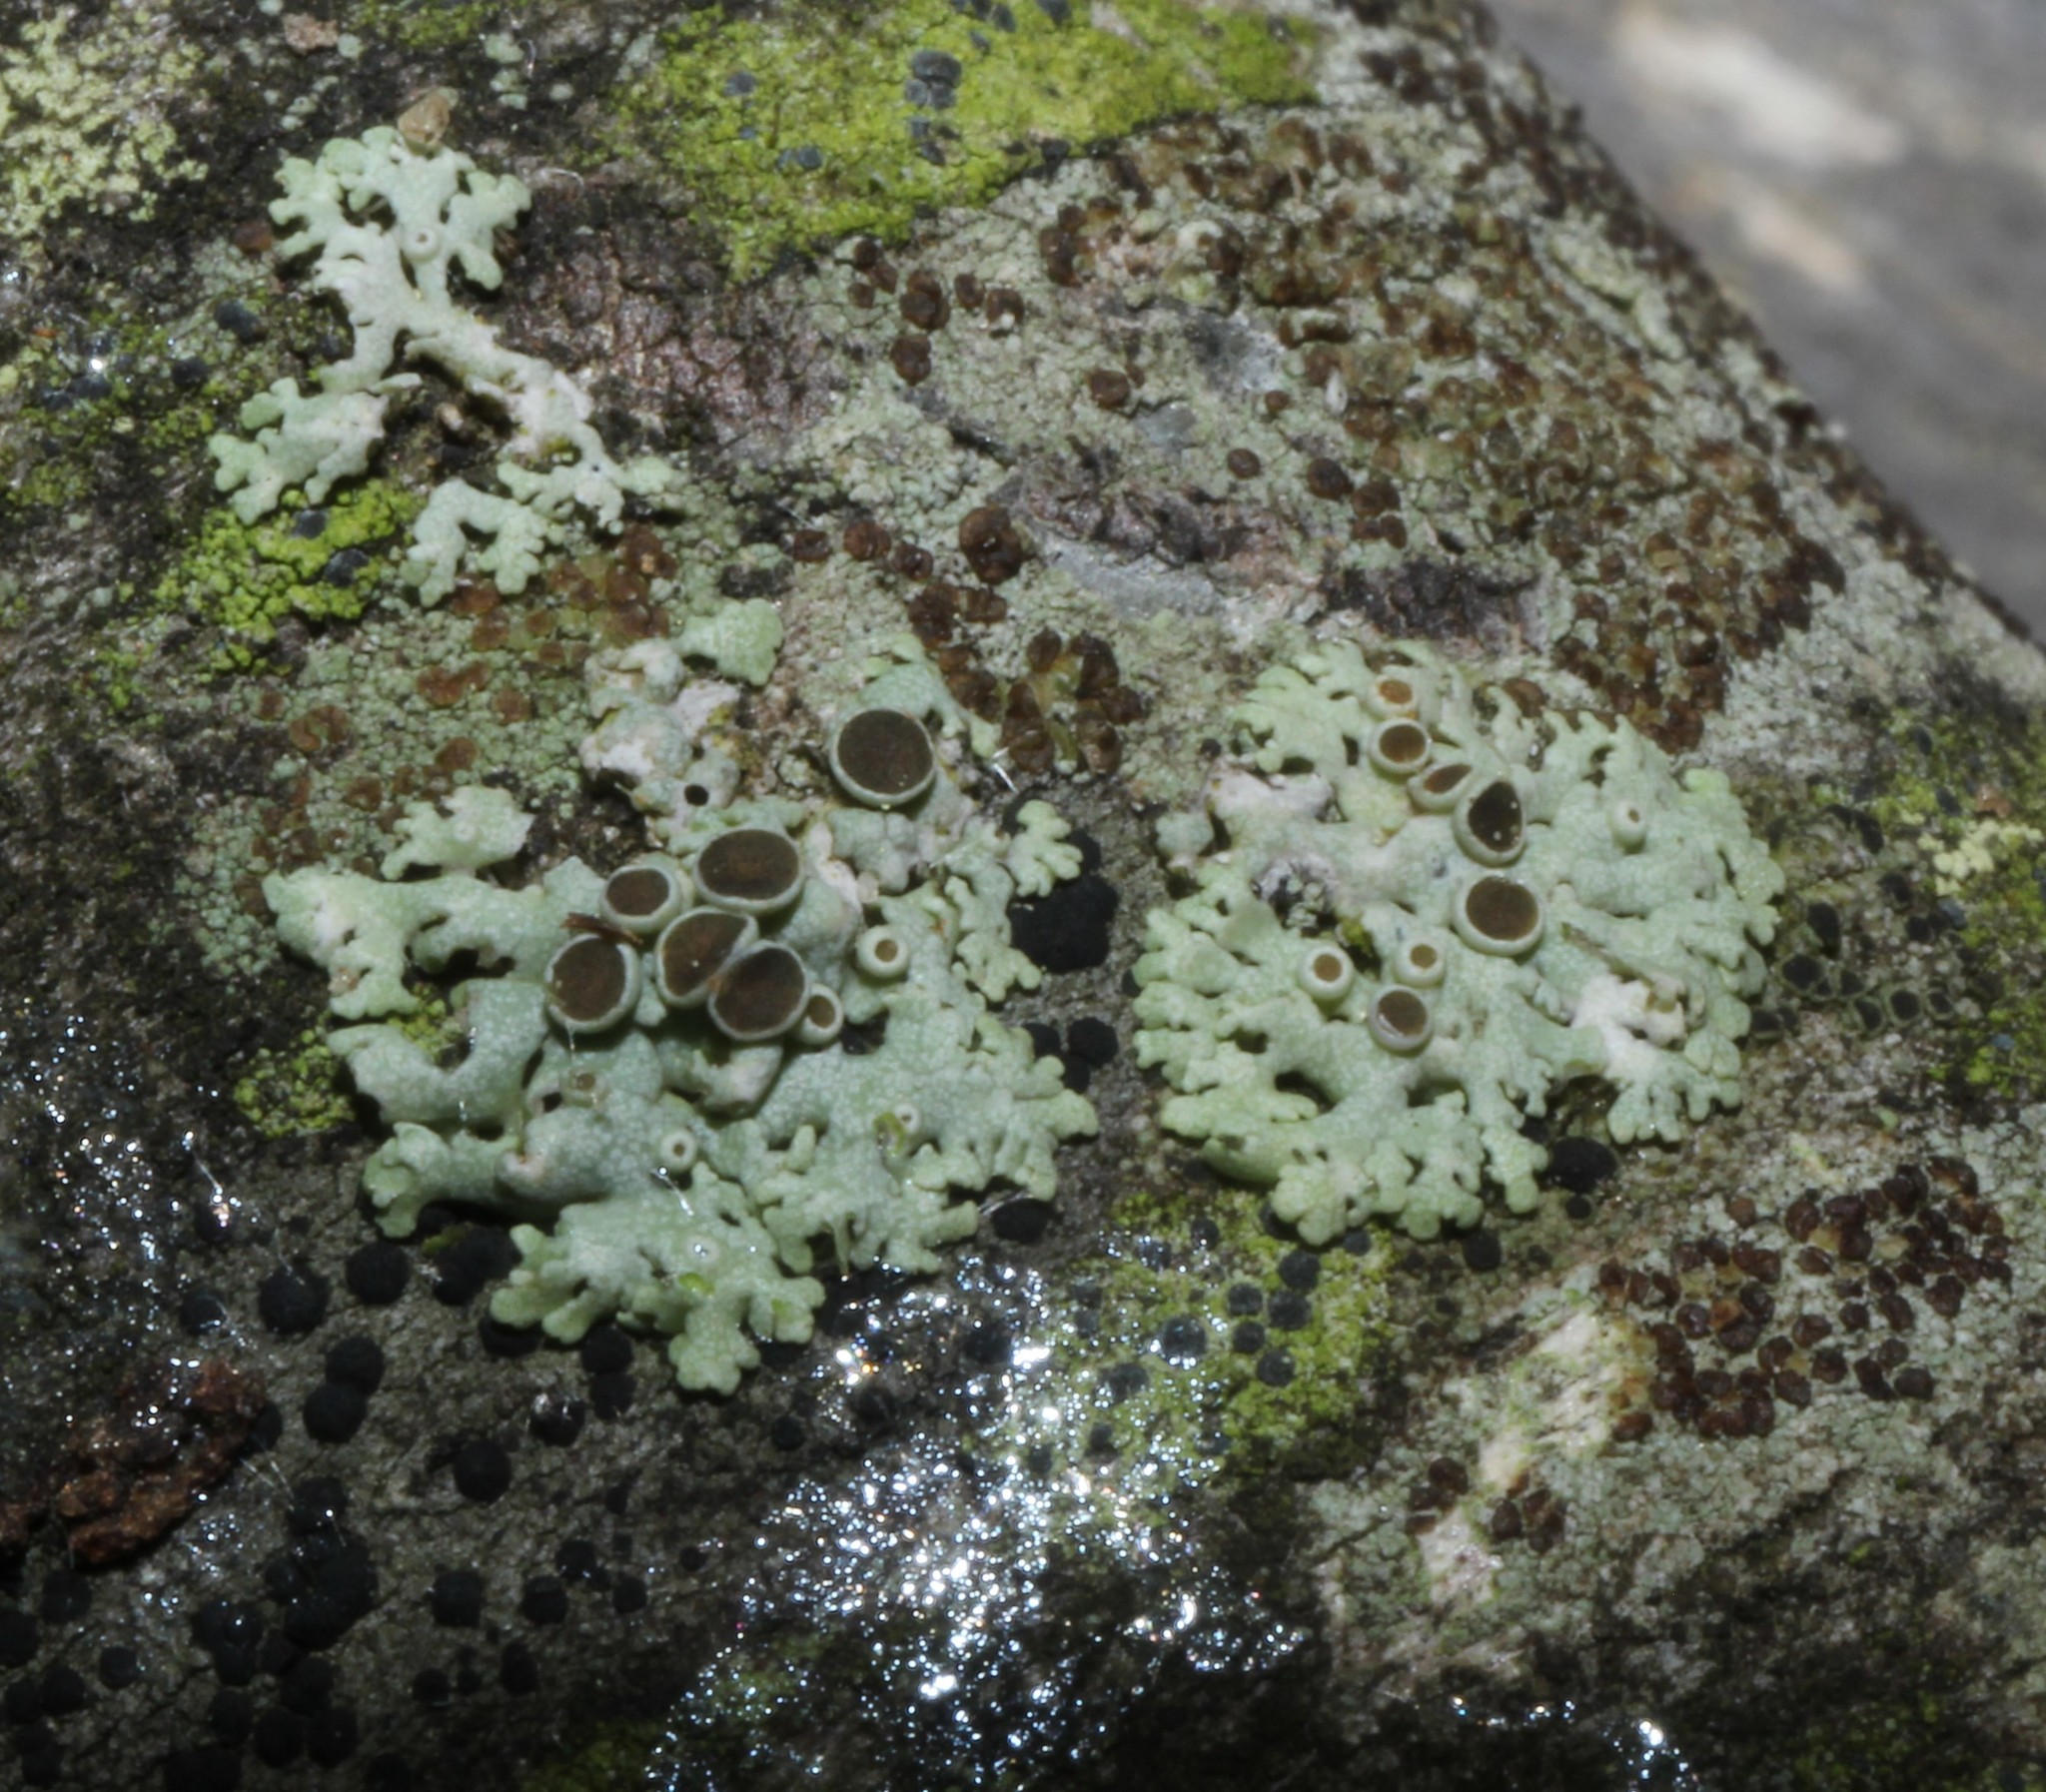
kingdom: Fungi
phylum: Ascomycota
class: Lecanoromycetes
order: Caliciales
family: Physciaceae
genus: Physcia
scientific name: Physcia stellaris
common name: Star rosette lichen
